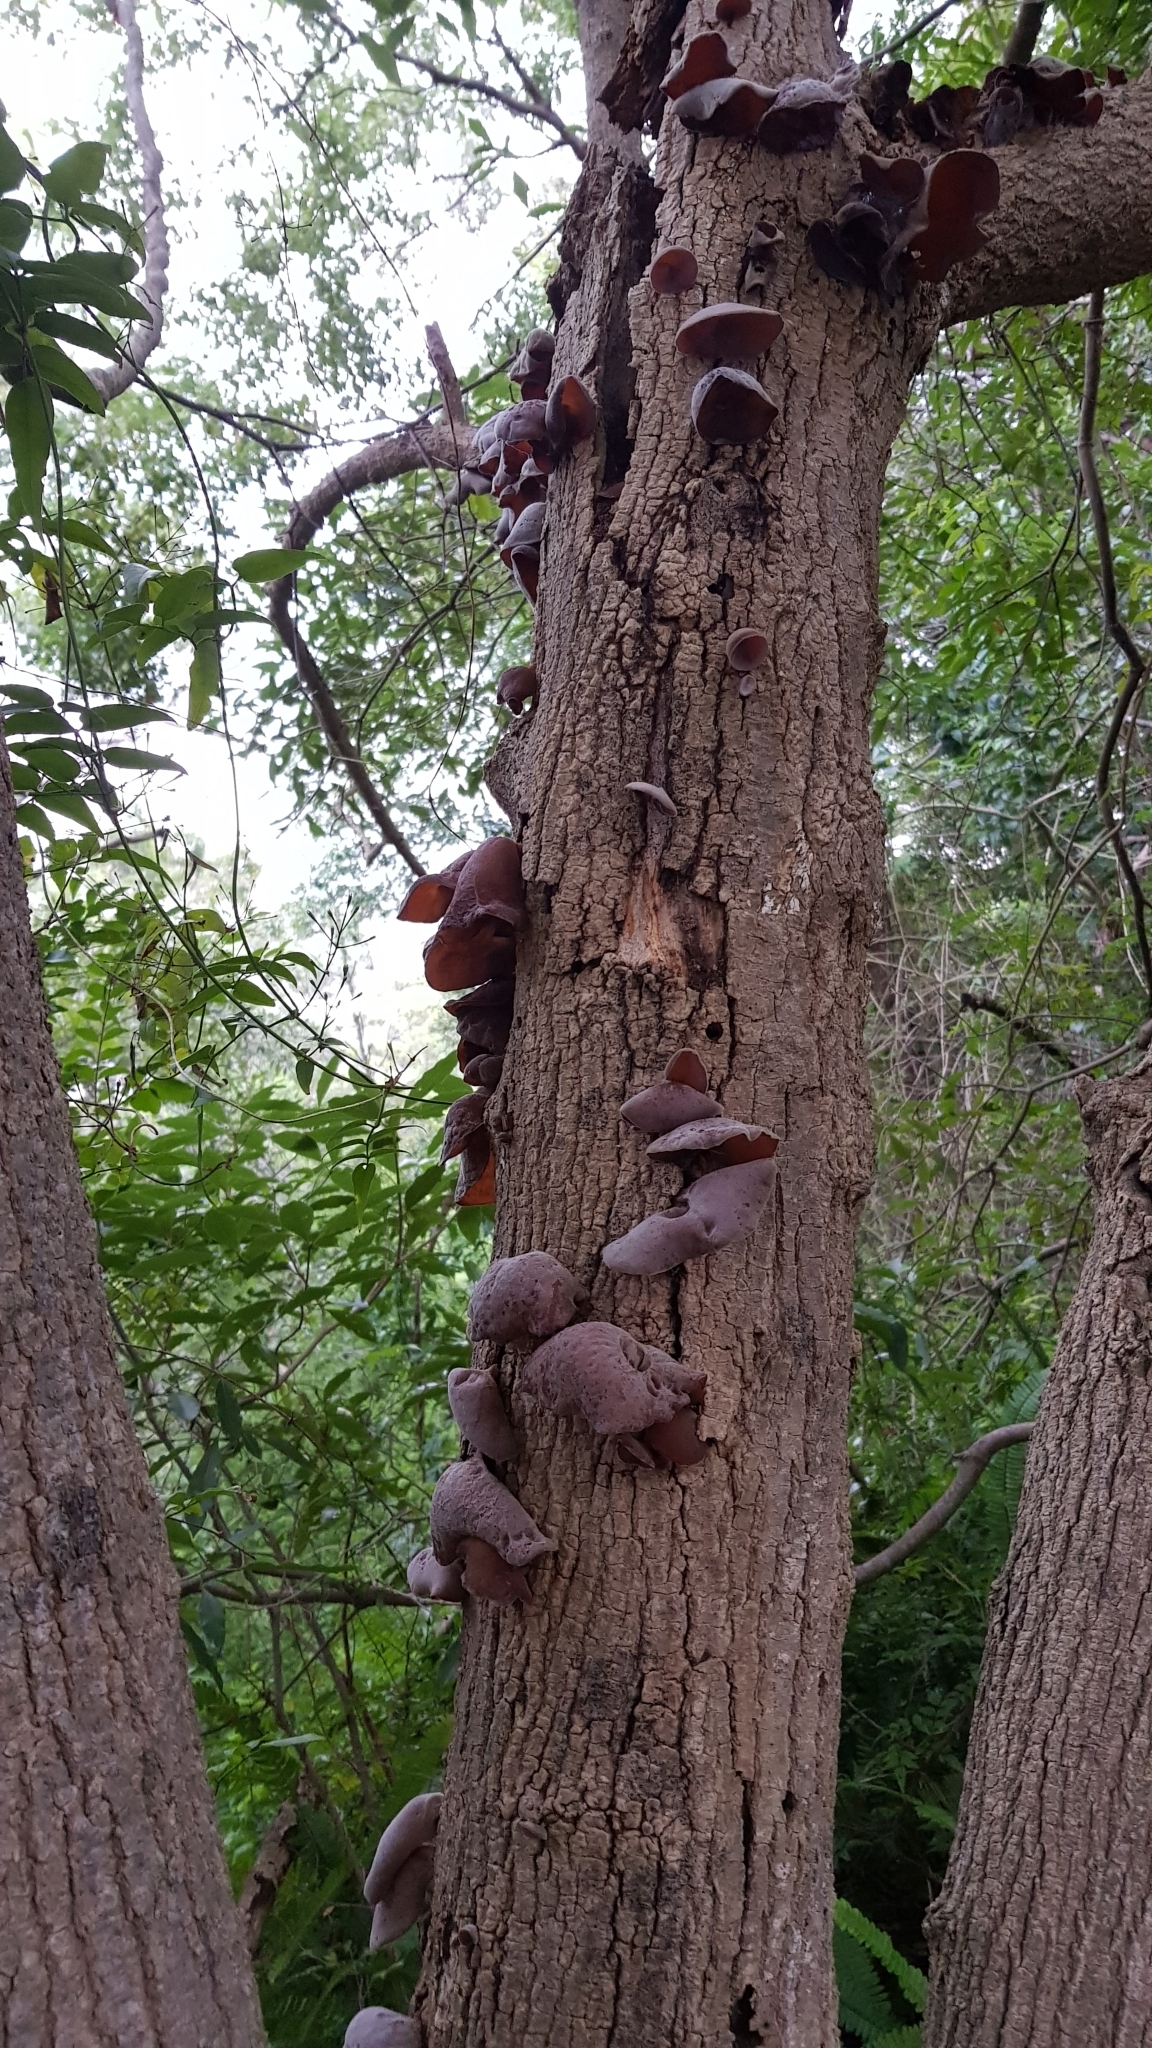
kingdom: Fungi
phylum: Basidiomycota
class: Agaricomycetes
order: Auriculariales
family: Auriculariaceae
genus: Auricularia
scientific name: Auricularia cornea
